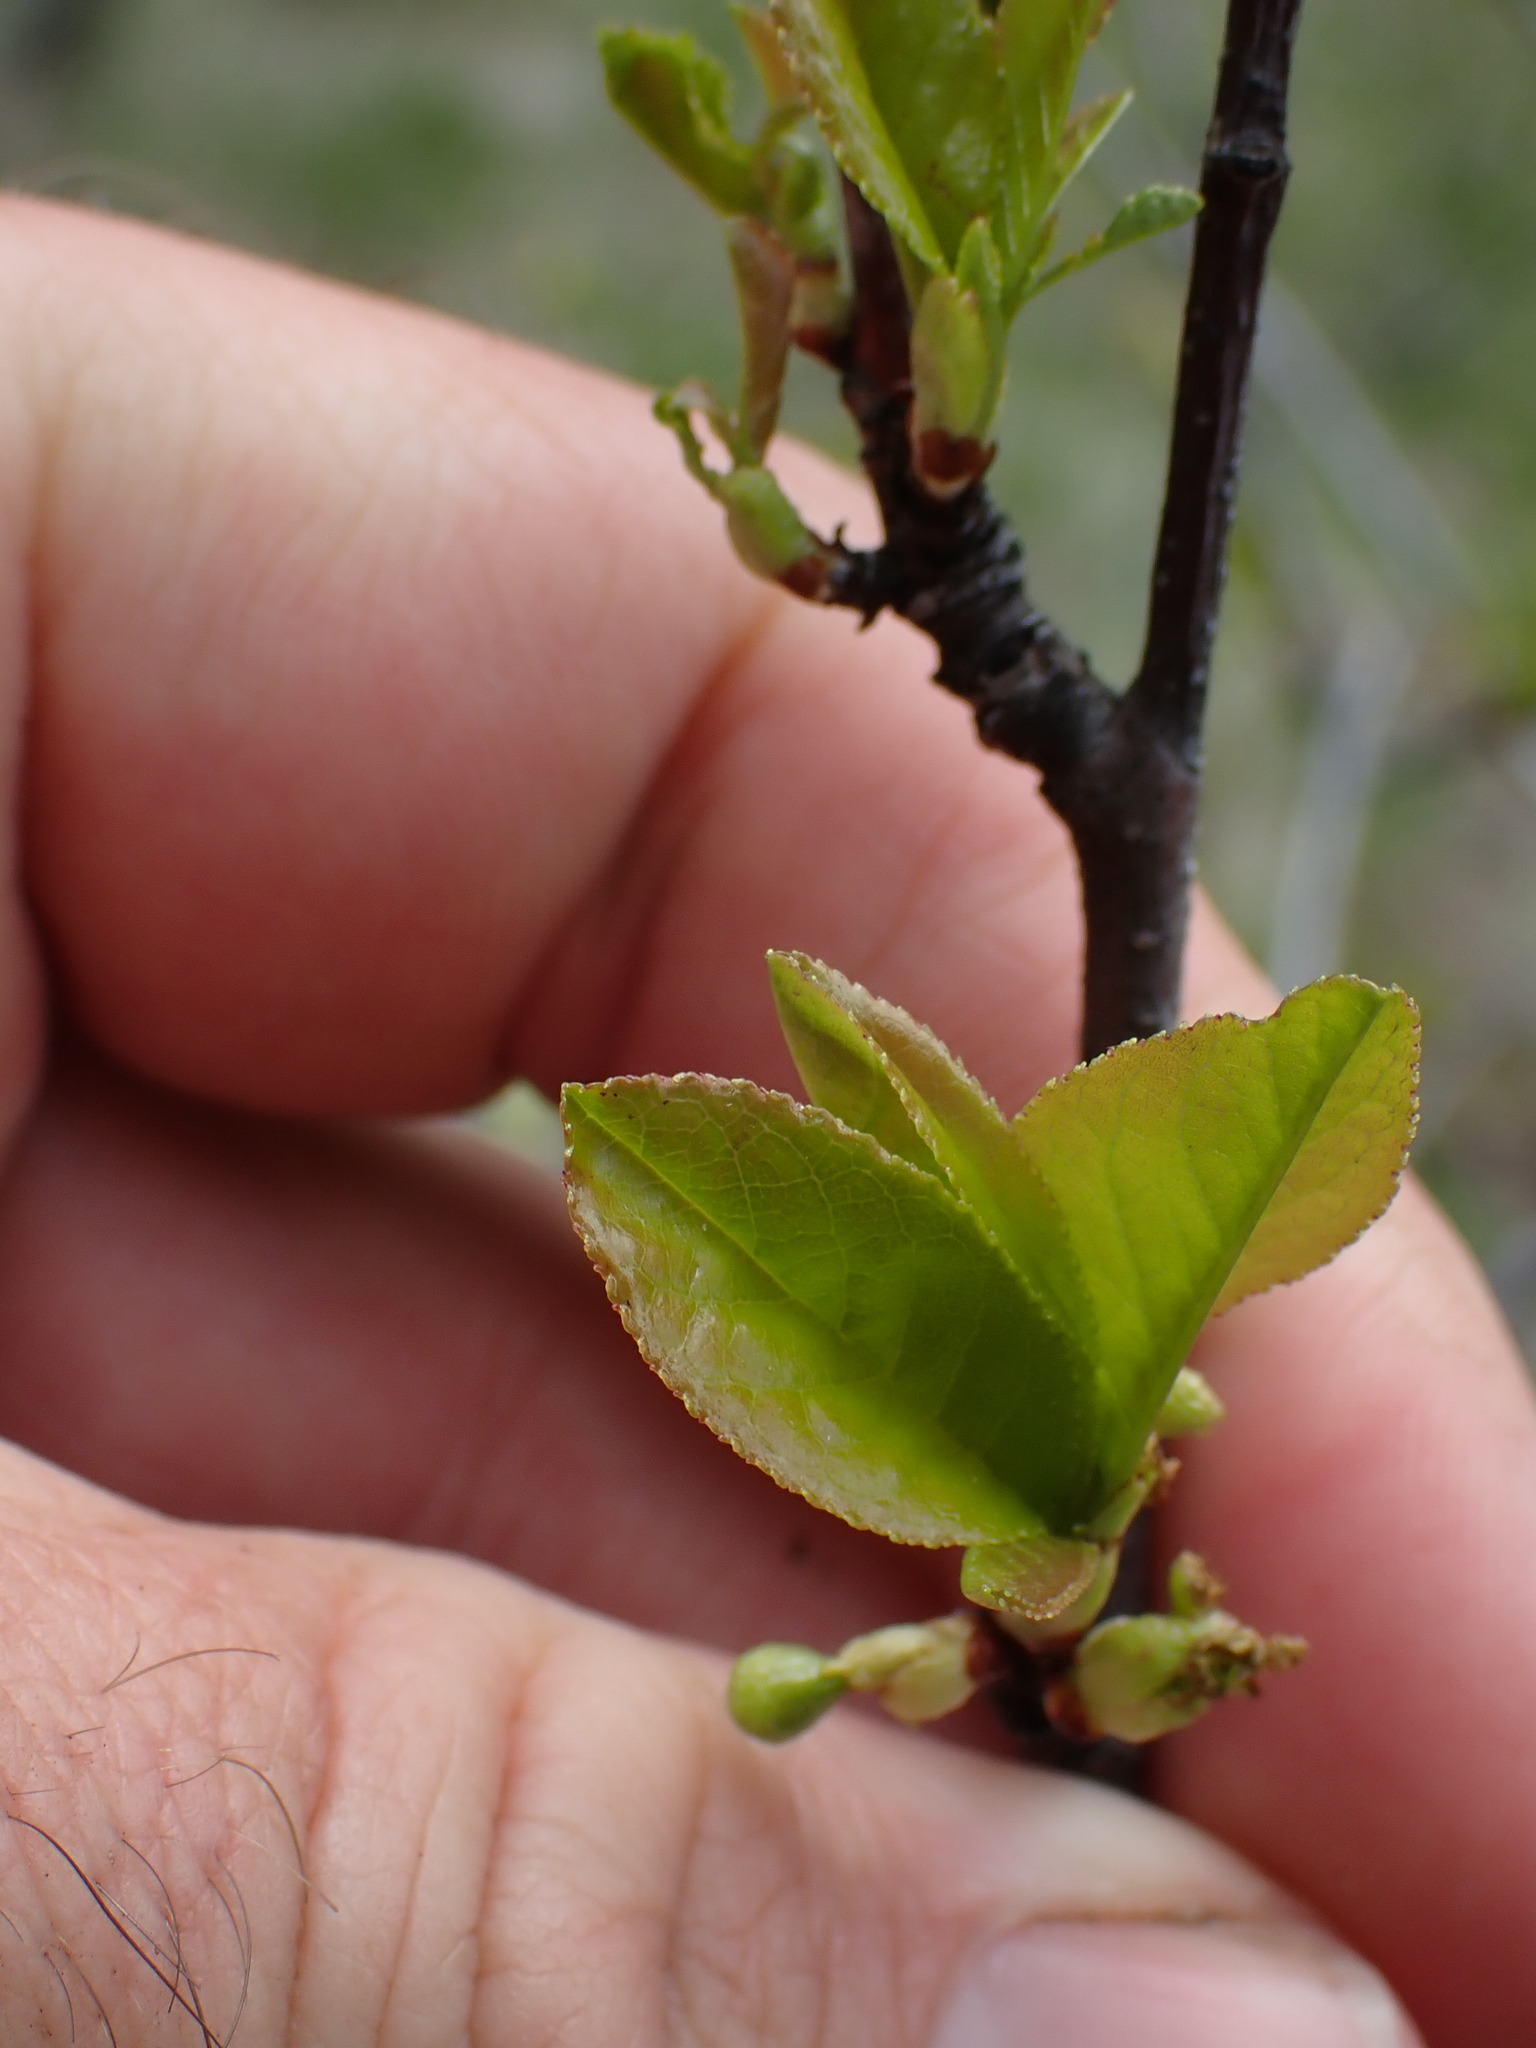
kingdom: Plantae
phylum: Tracheophyta
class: Magnoliopsida
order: Rosales
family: Rosaceae
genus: Prunus
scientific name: Prunus virginiana
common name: Chokecherry
